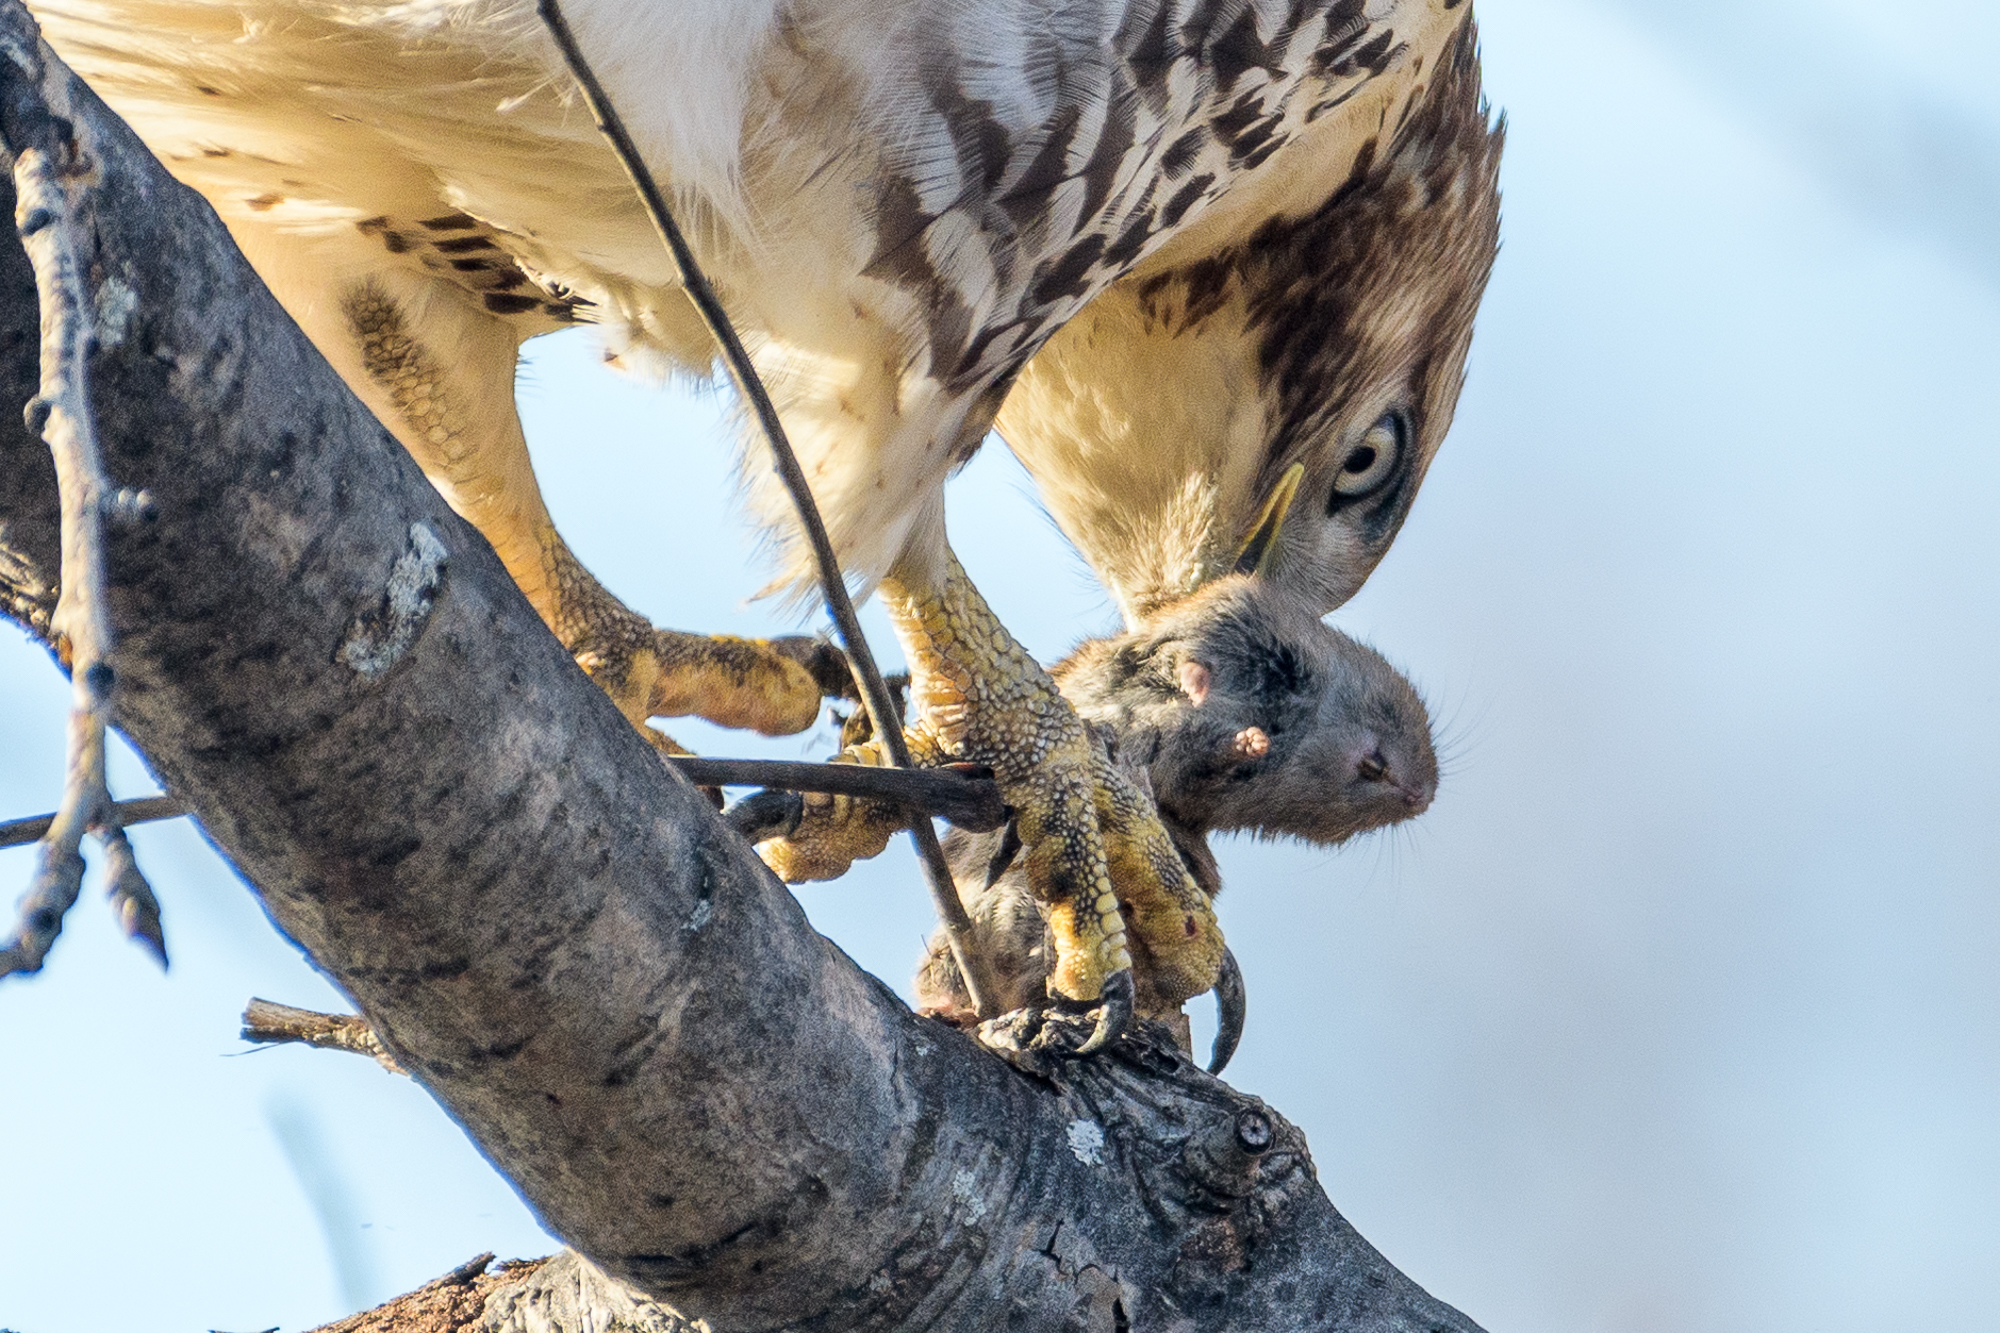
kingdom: Animalia
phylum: Chordata
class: Aves
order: Accipitriformes
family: Accipitridae
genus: Buteo
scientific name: Buteo jamaicensis
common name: Red-tailed hawk
